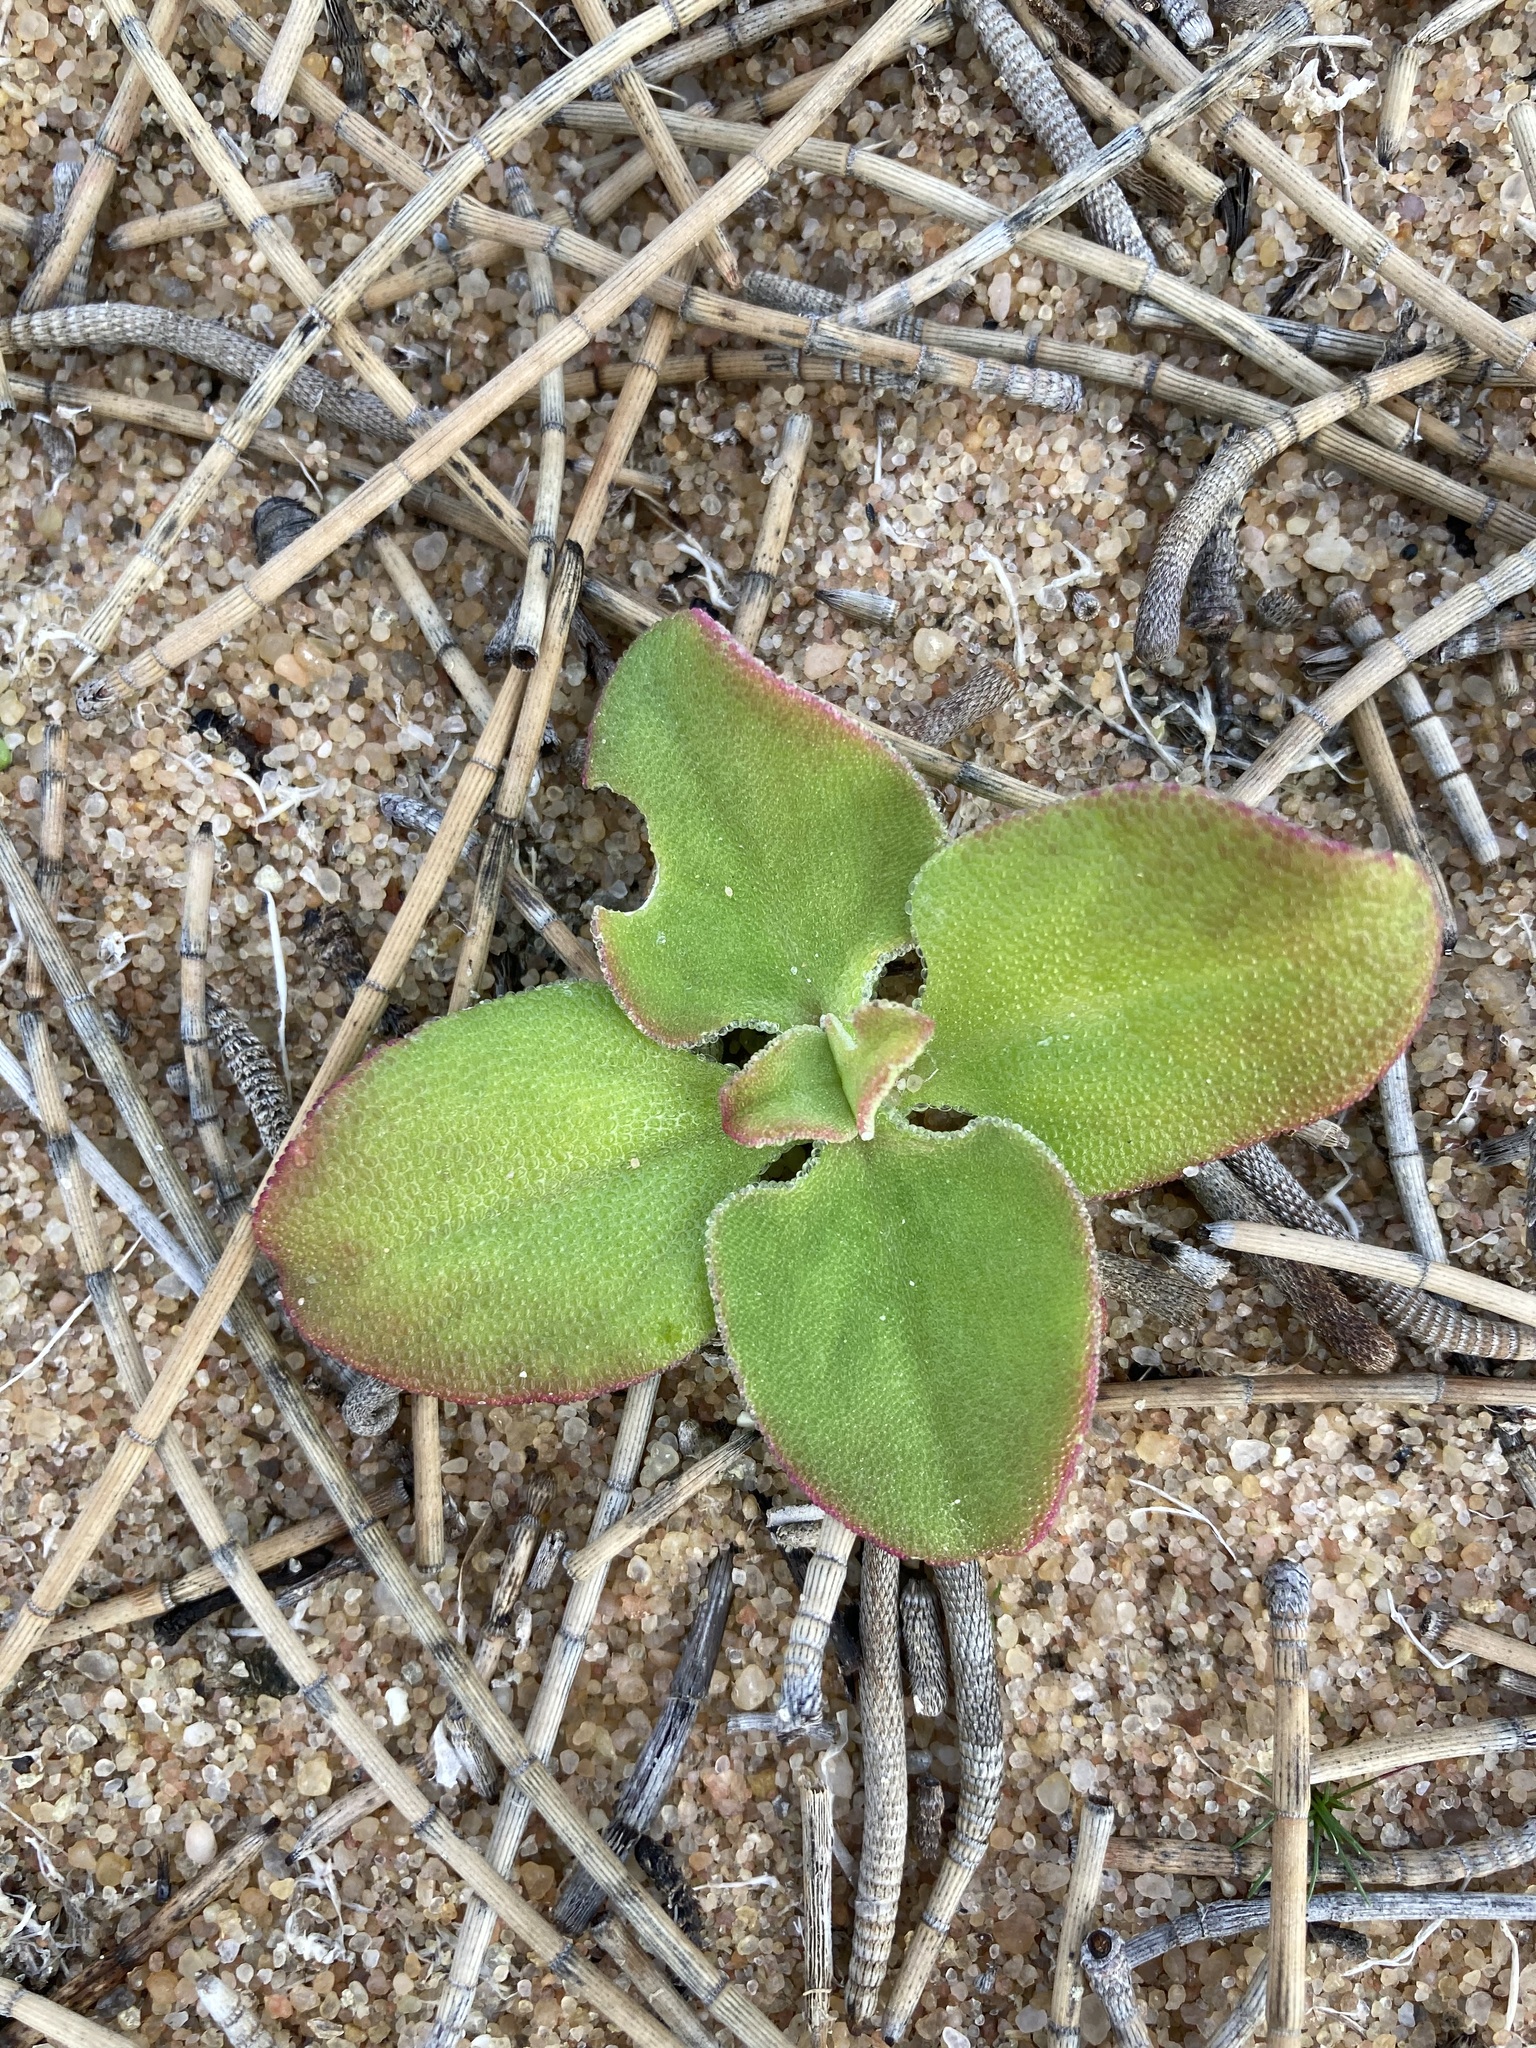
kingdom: Plantae
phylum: Tracheophyta
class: Magnoliopsida
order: Caryophyllales
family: Aizoaceae
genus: Mesembryanthemum
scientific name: Mesembryanthemum crystallinum
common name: Common iceplant
